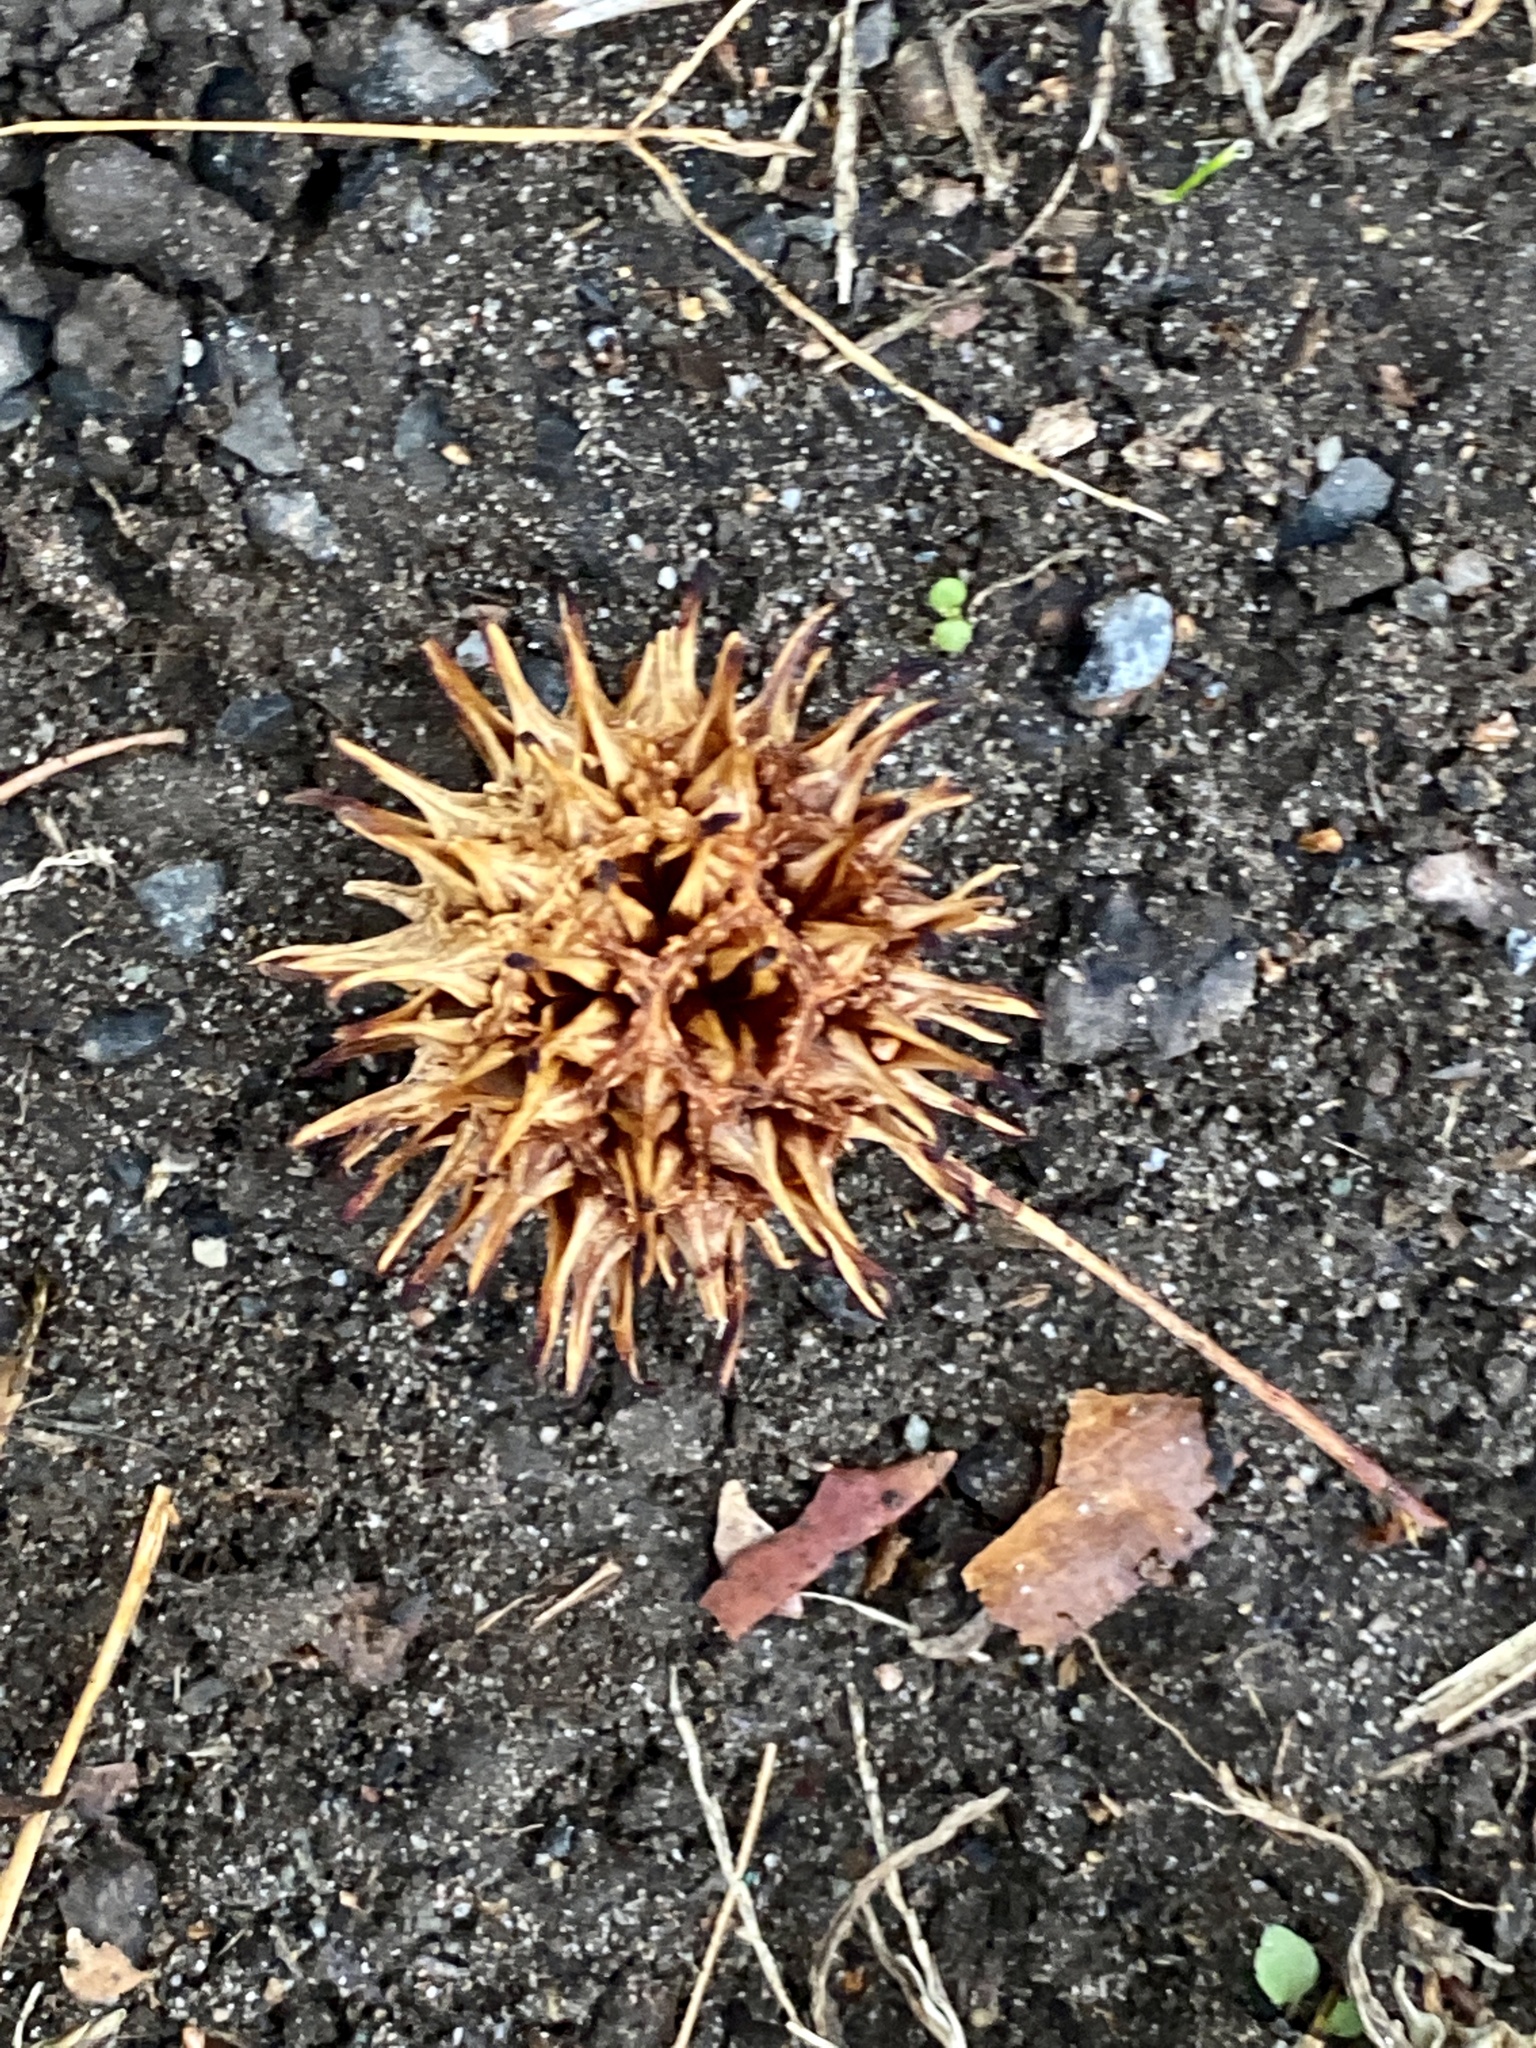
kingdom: Plantae
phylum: Tracheophyta
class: Magnoliopsida
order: Saxifragales
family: Altingiaceae
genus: Liquidambar
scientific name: Liquidambar styraciflua
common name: Sweet gum
